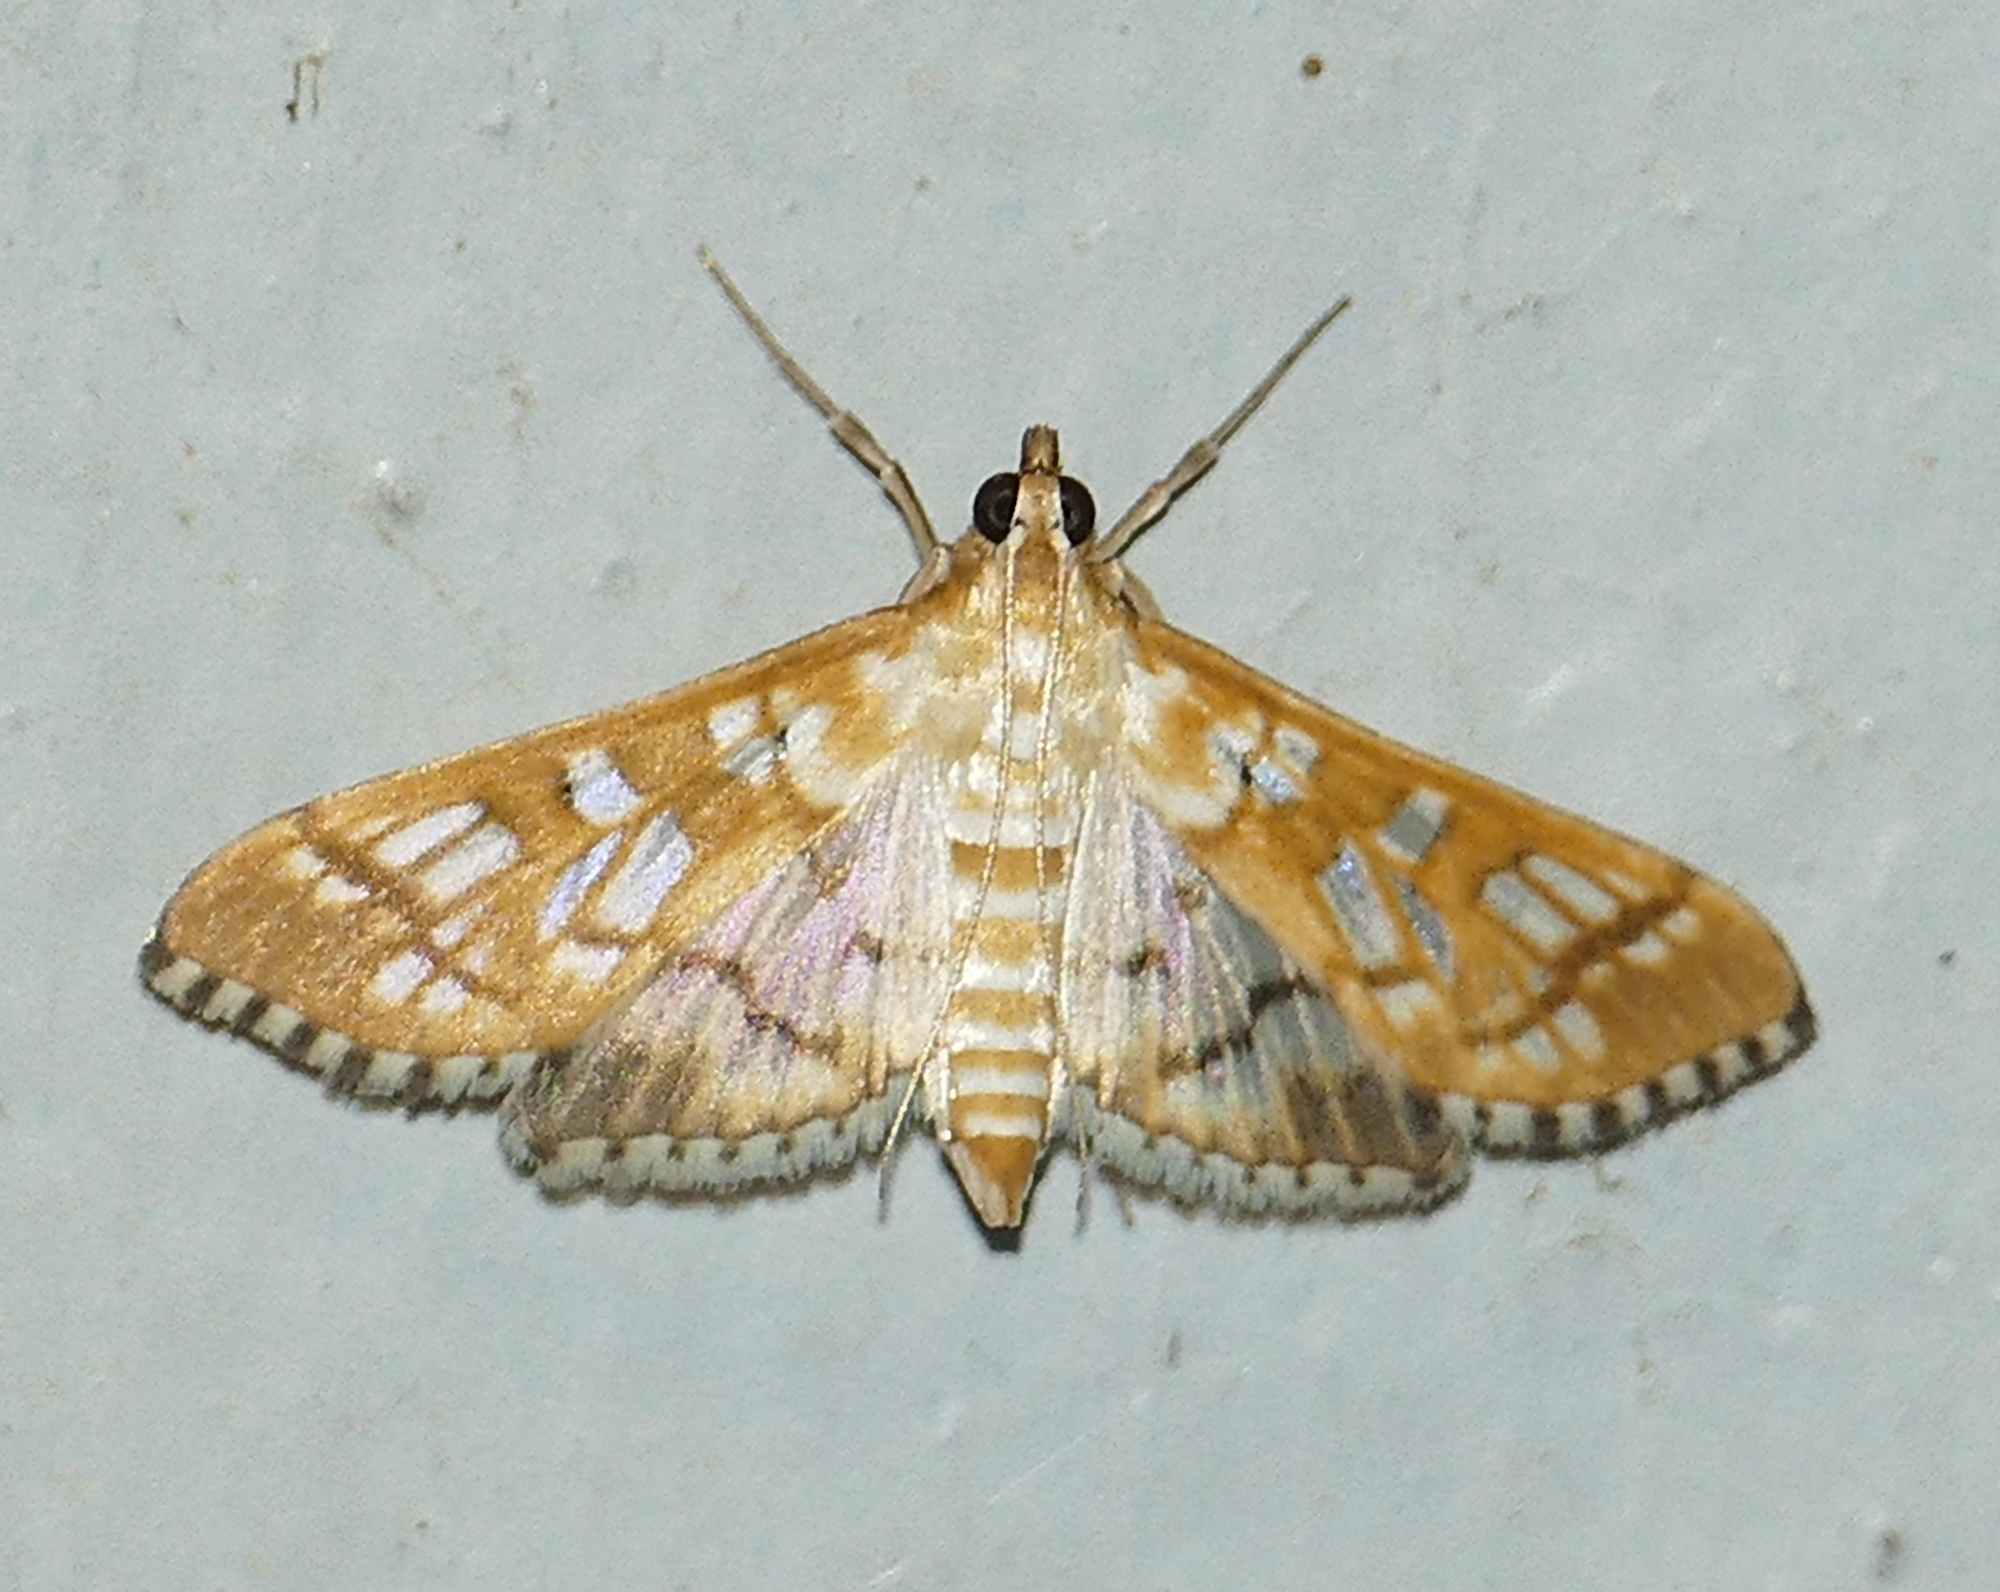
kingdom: Animalia
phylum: Arthropoda
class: Insecta
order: Lepidoptera
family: Crambidae
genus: Epipagis
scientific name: Epipagis fenestralis
